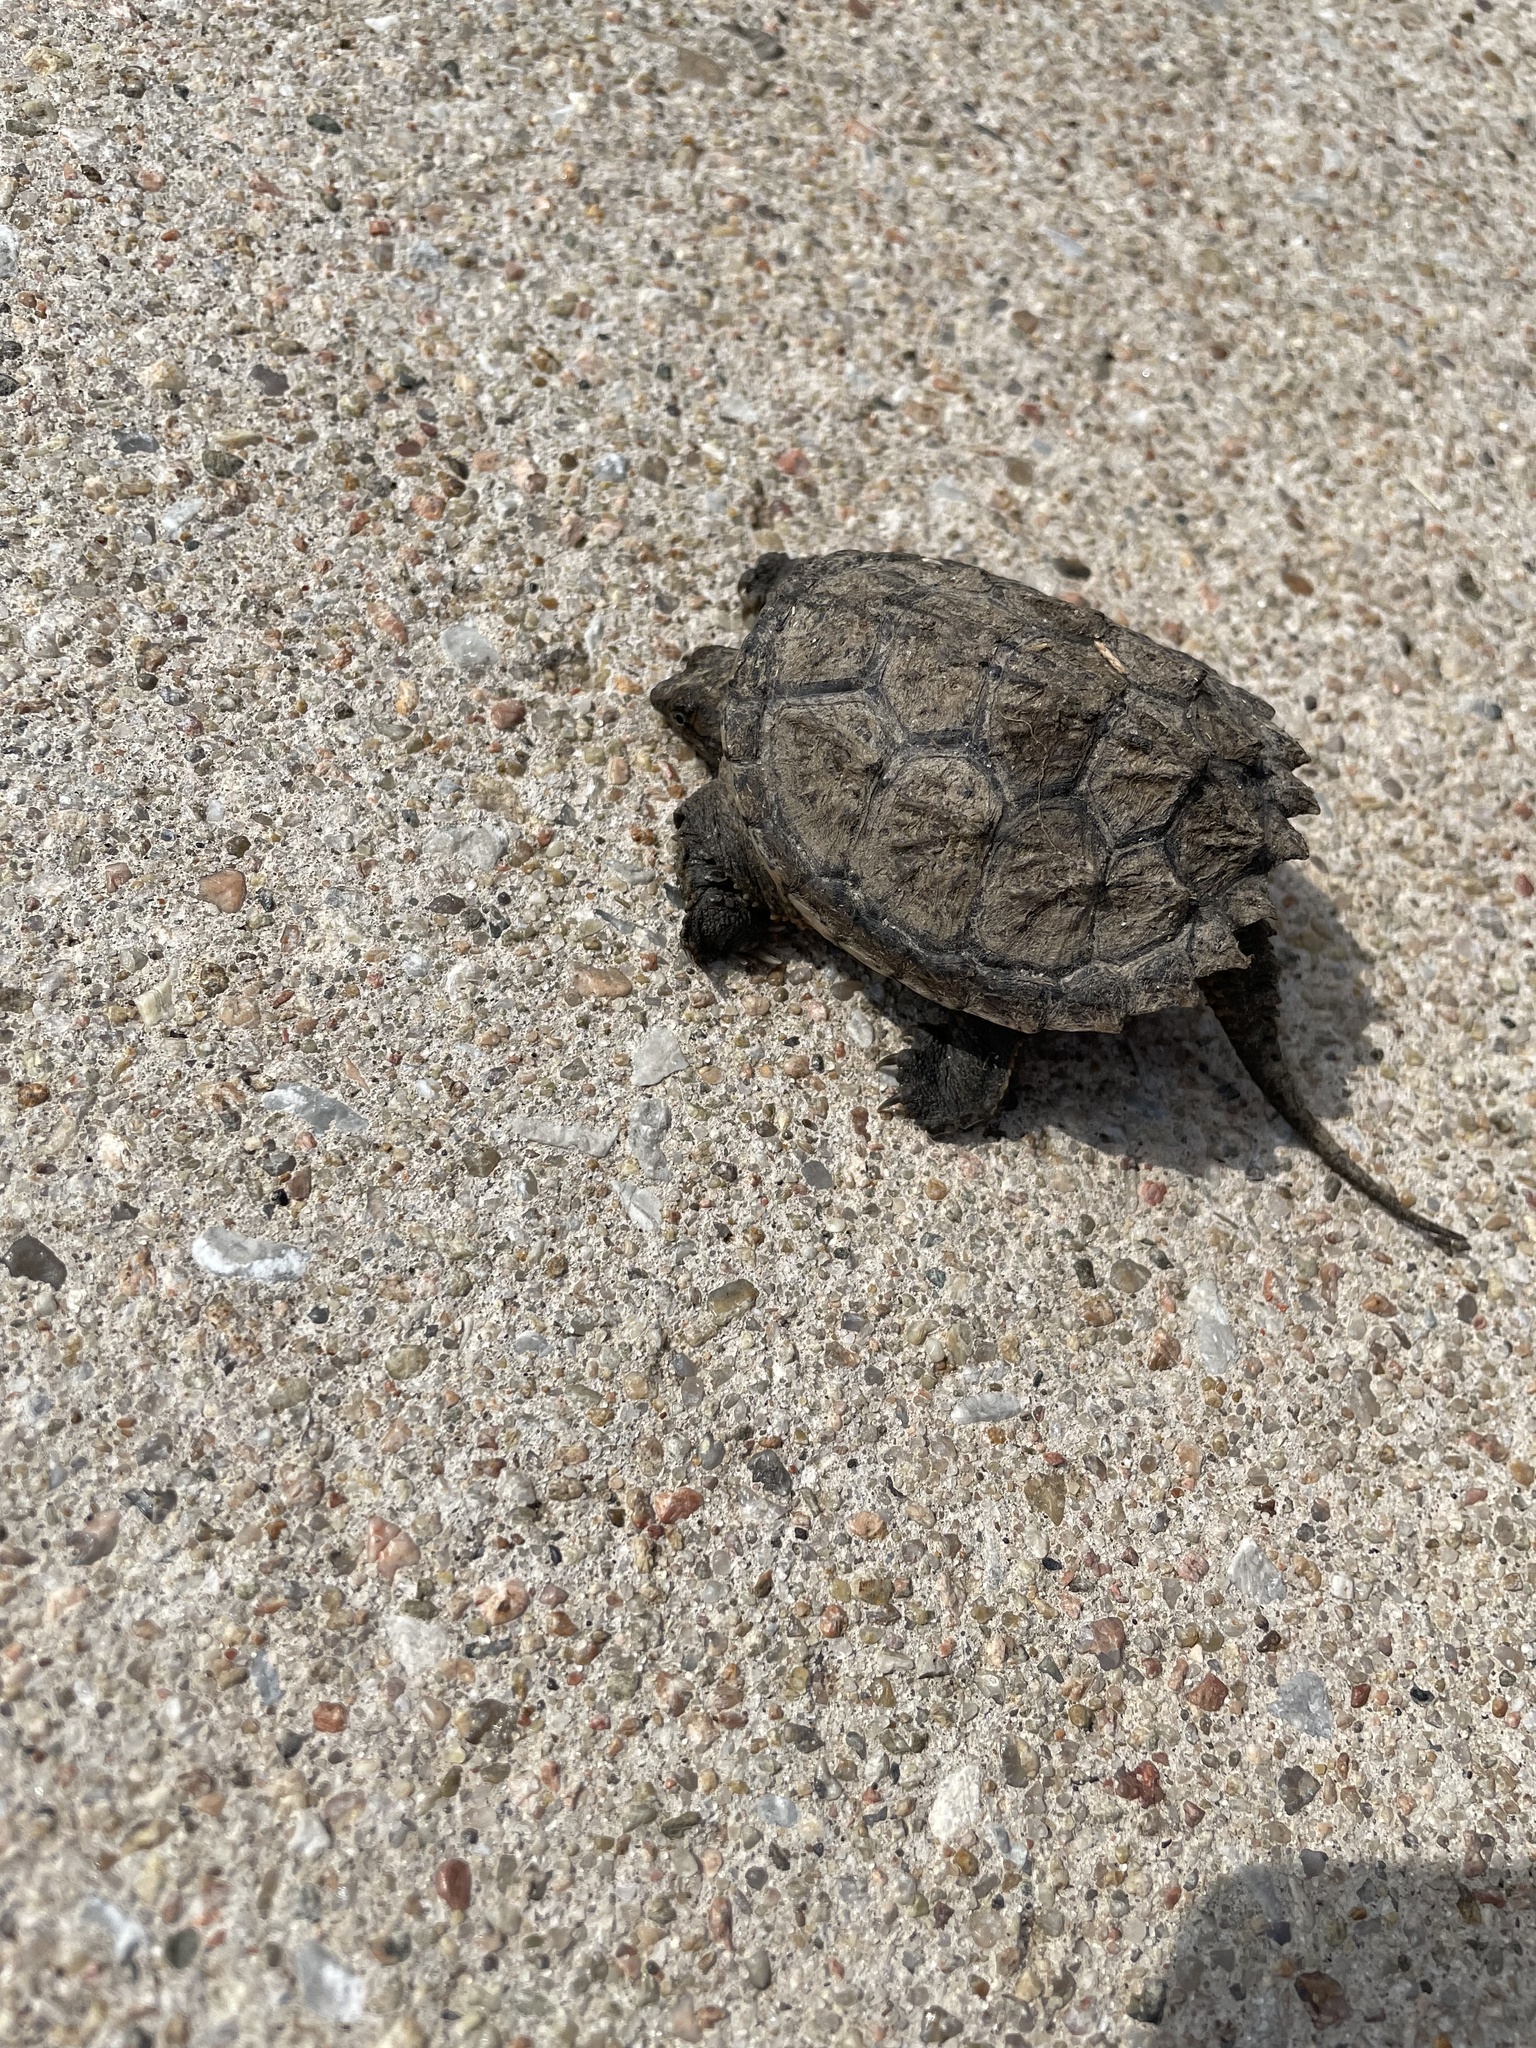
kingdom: Animalia
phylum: Chordata
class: Testudines
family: Chelydridae
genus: Chelydra
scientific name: Chelydra serpentina
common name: Common snapping turtle
